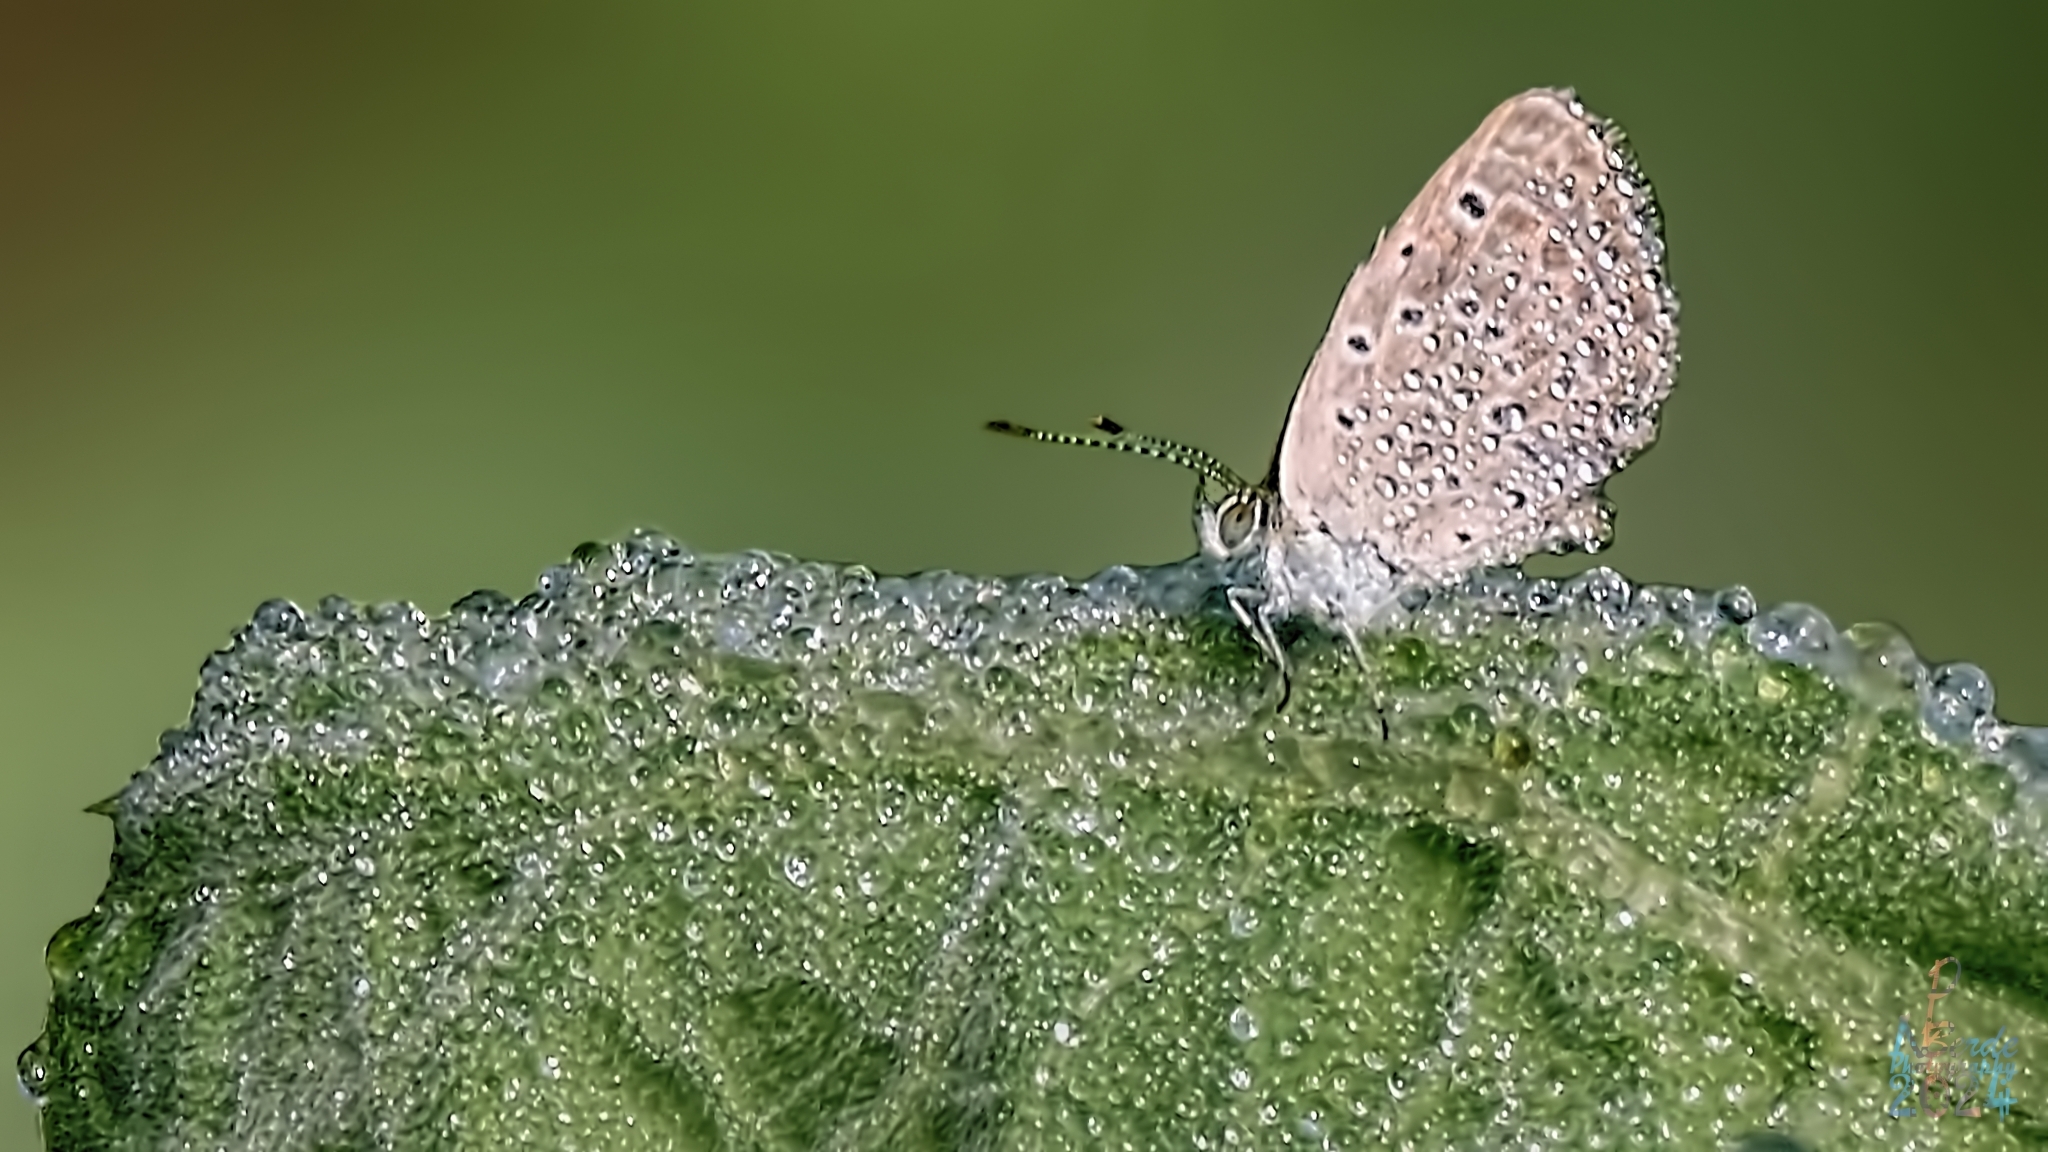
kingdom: Animalia
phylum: Arthropoda
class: Insecta
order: Lepidoptera
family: Lycaenidae
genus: Zizeeria
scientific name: Zizeeria karsandra
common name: Dark grass blue
